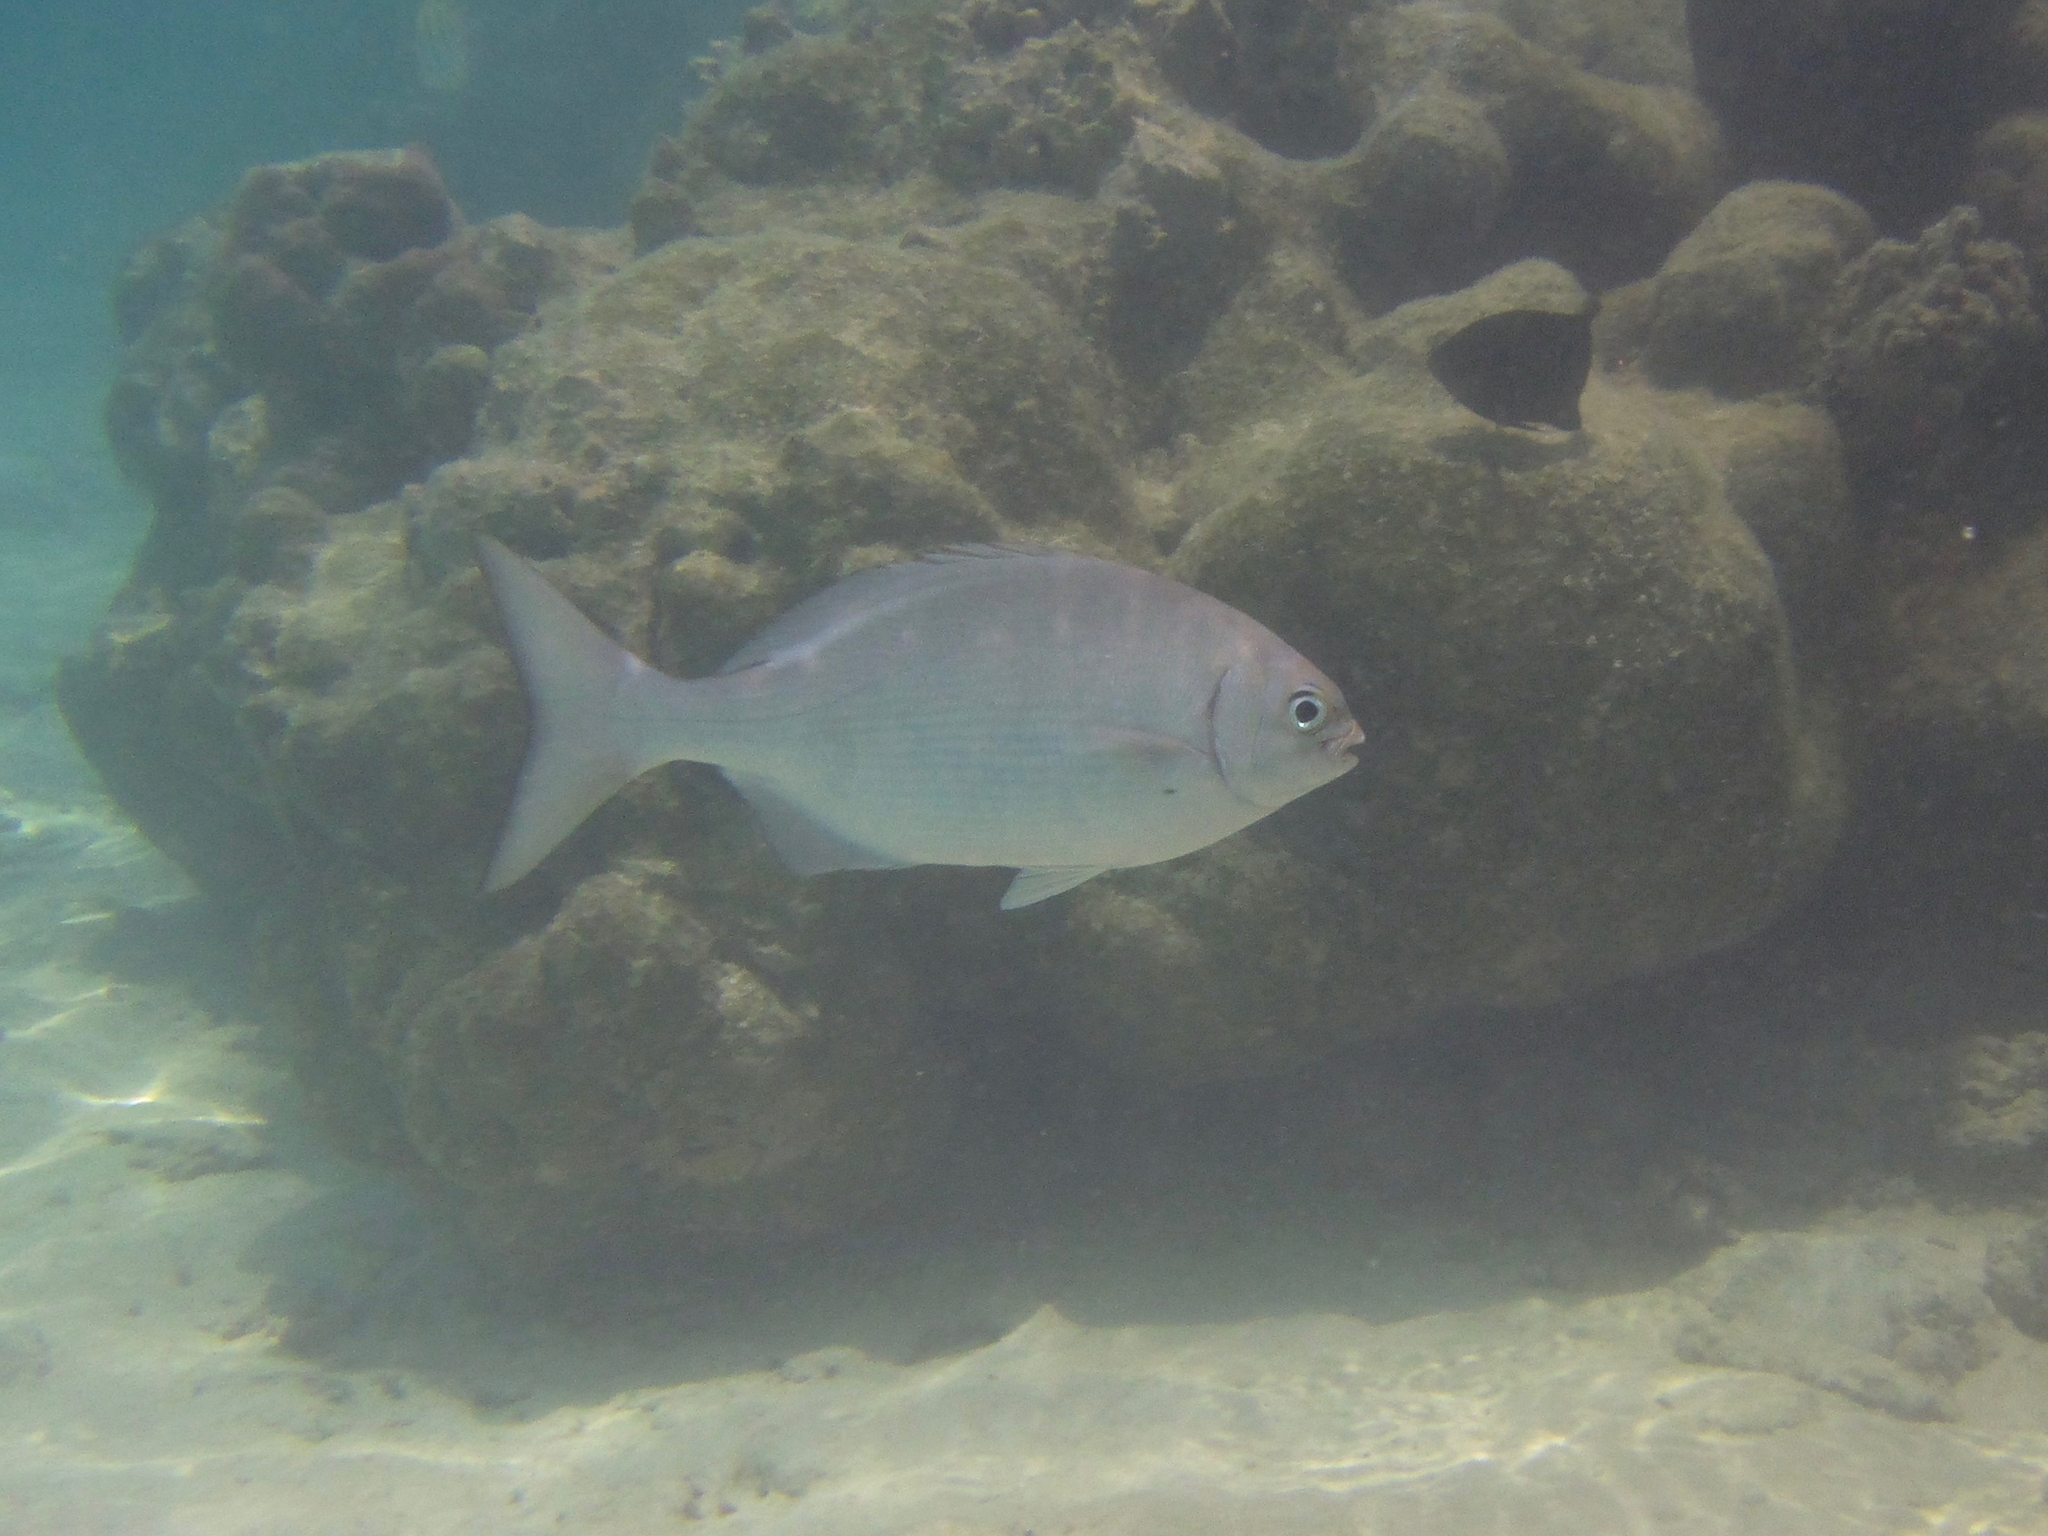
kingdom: Animalia
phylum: Chordata
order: Perciformes
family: Kyphosidae
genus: Kyphosus
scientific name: Kyphosus vaigiensis
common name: Brassy chub
